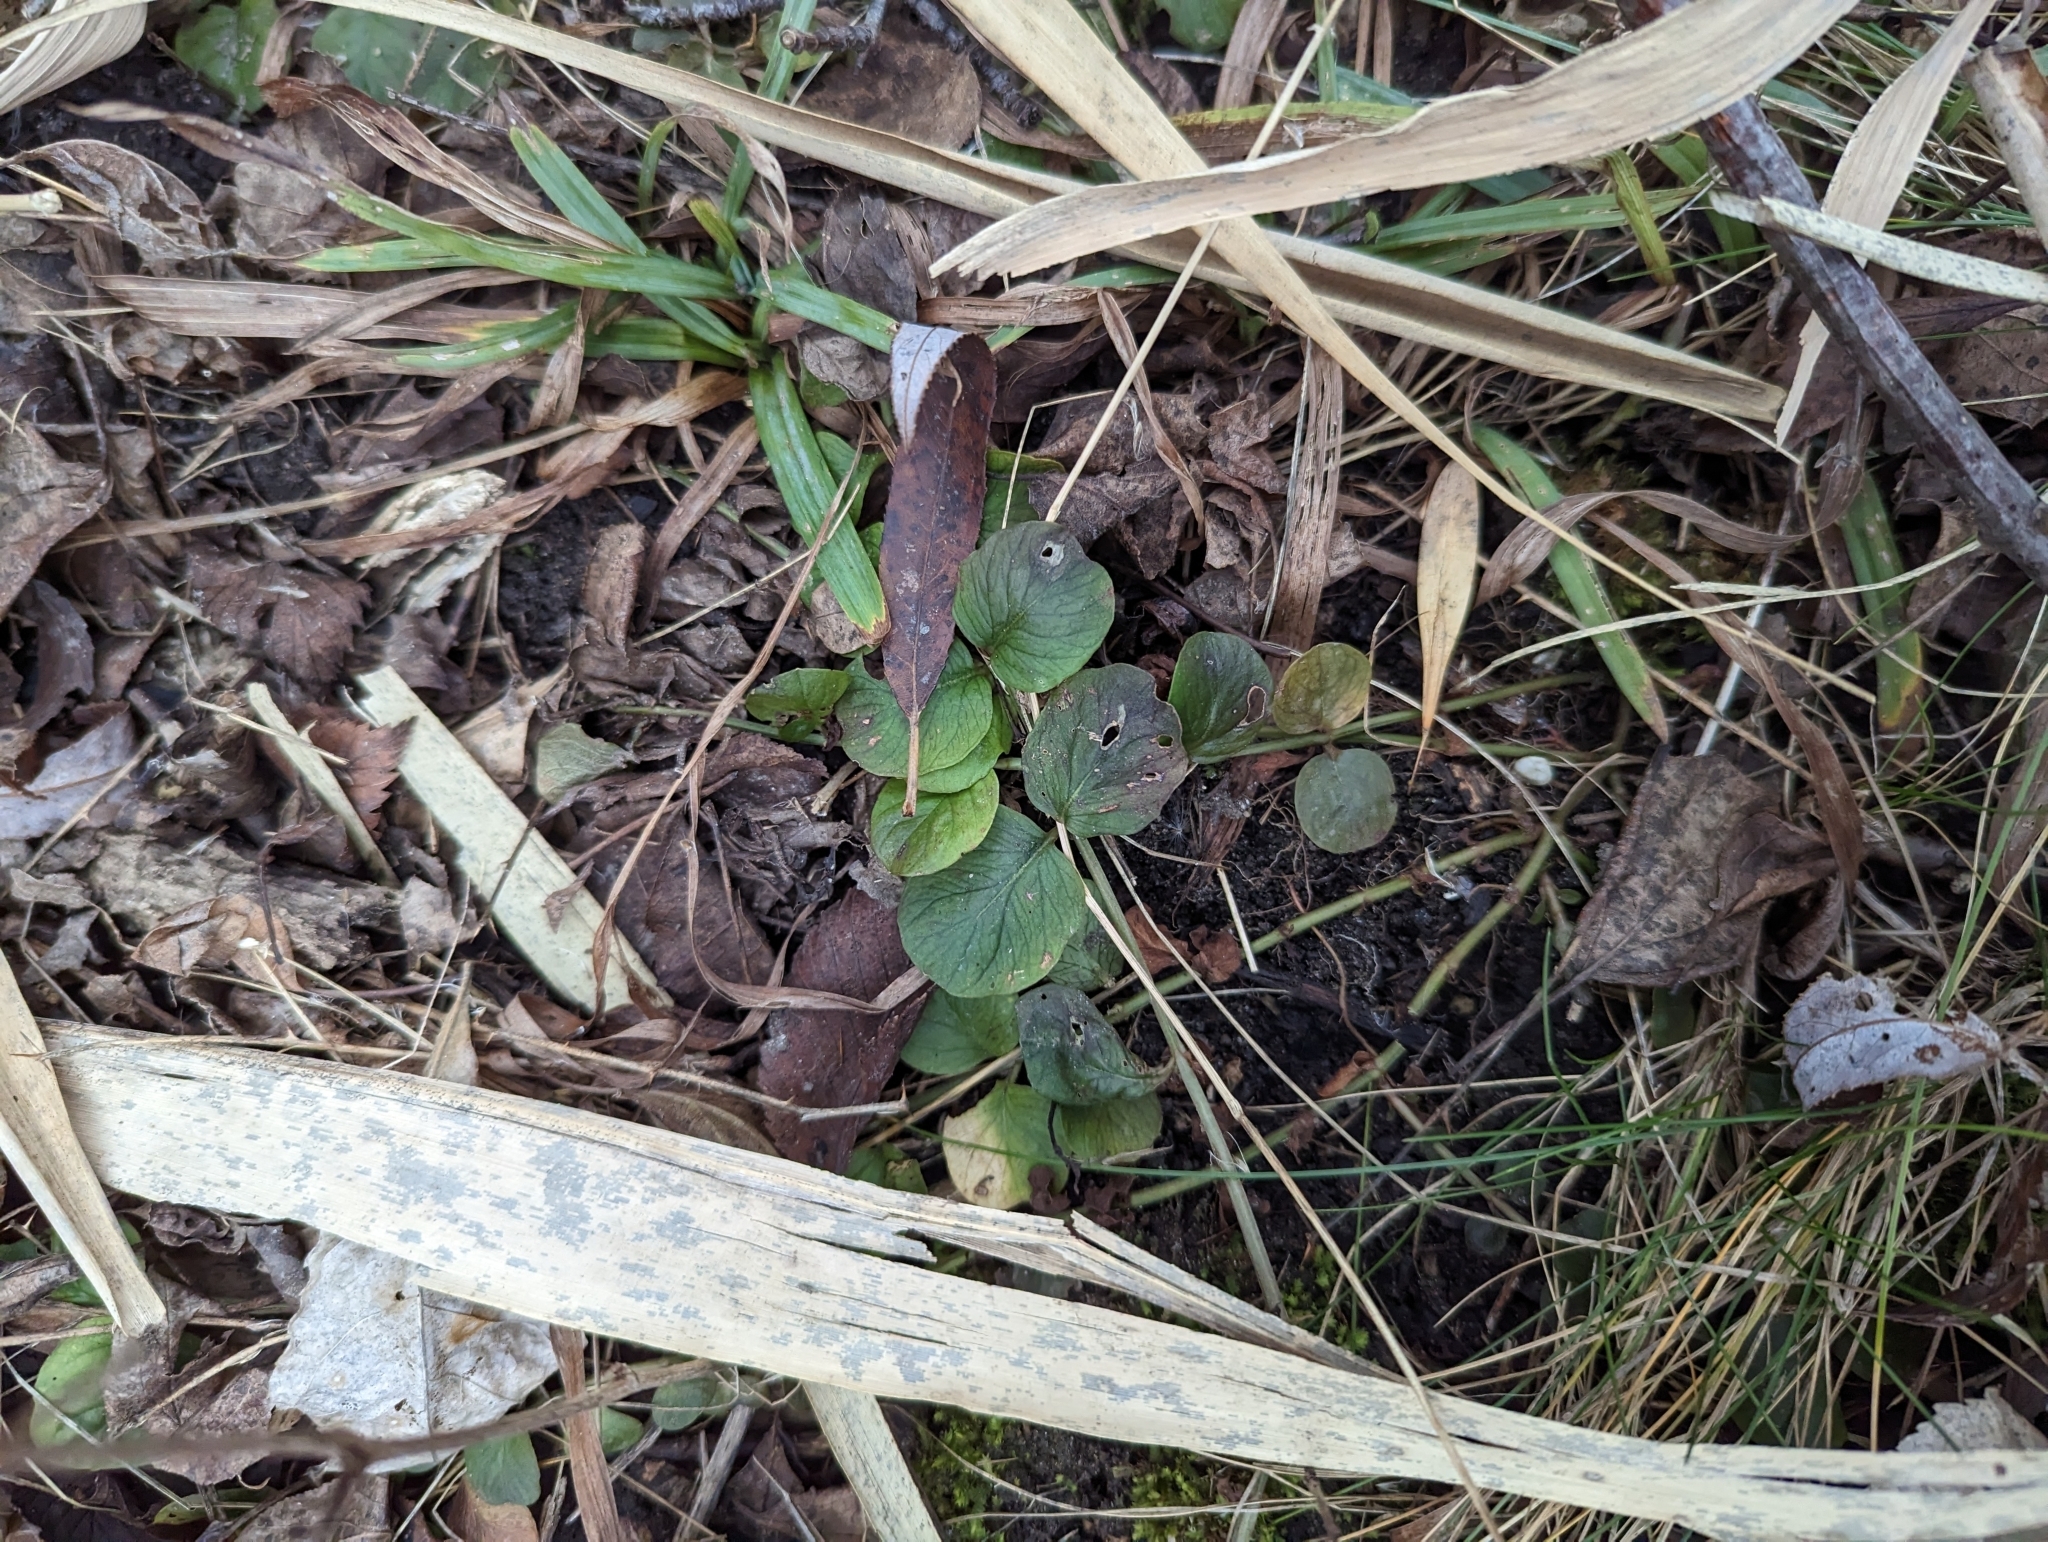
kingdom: Plantae
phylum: Tracheophyta
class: Magnoliopsida
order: Ericales
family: Primulaceae
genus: Lysimachia
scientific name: Lysimachia nummularia
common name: Moneywort
